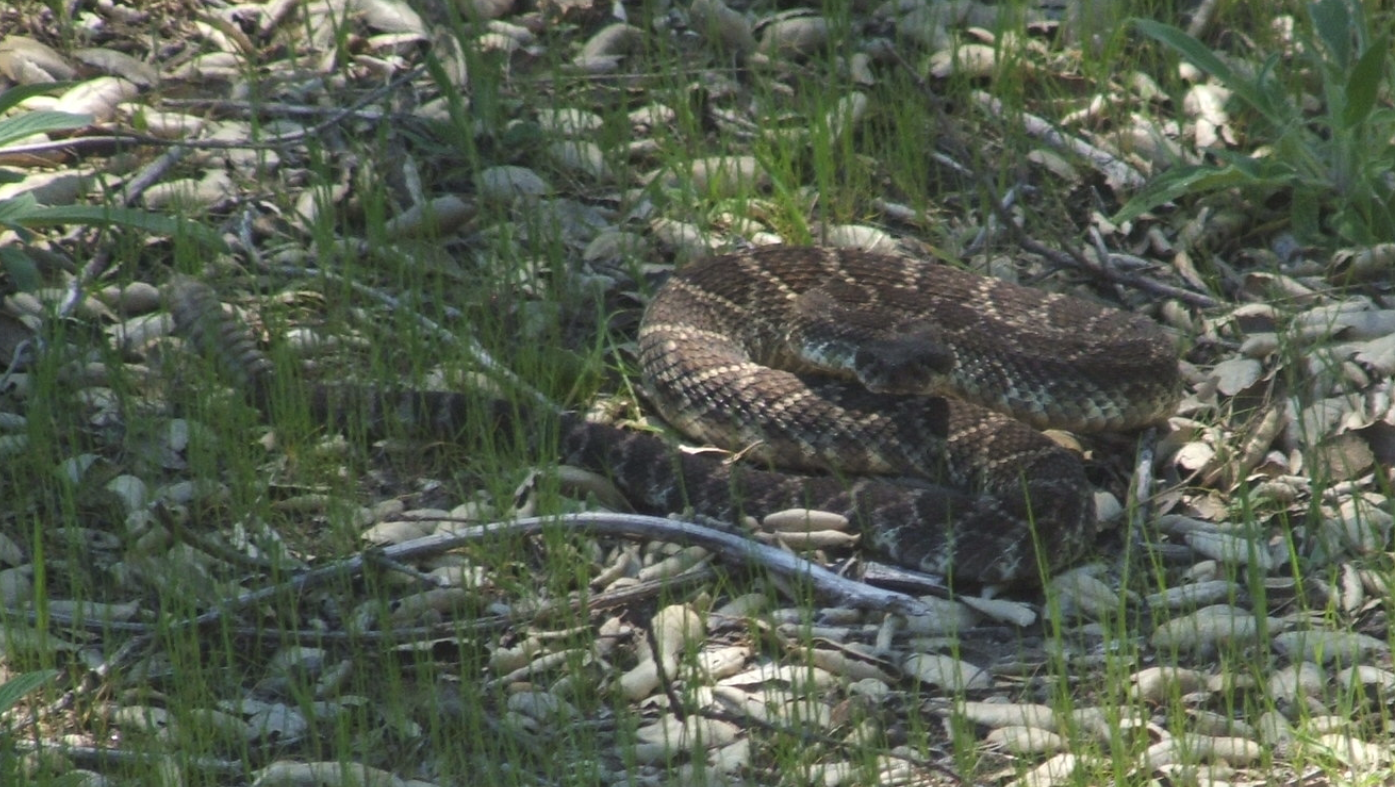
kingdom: Animalia
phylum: Chordata
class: Squamata
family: Viperidae
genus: Crotalus
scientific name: Crotalus oreganus
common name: Abyssus
